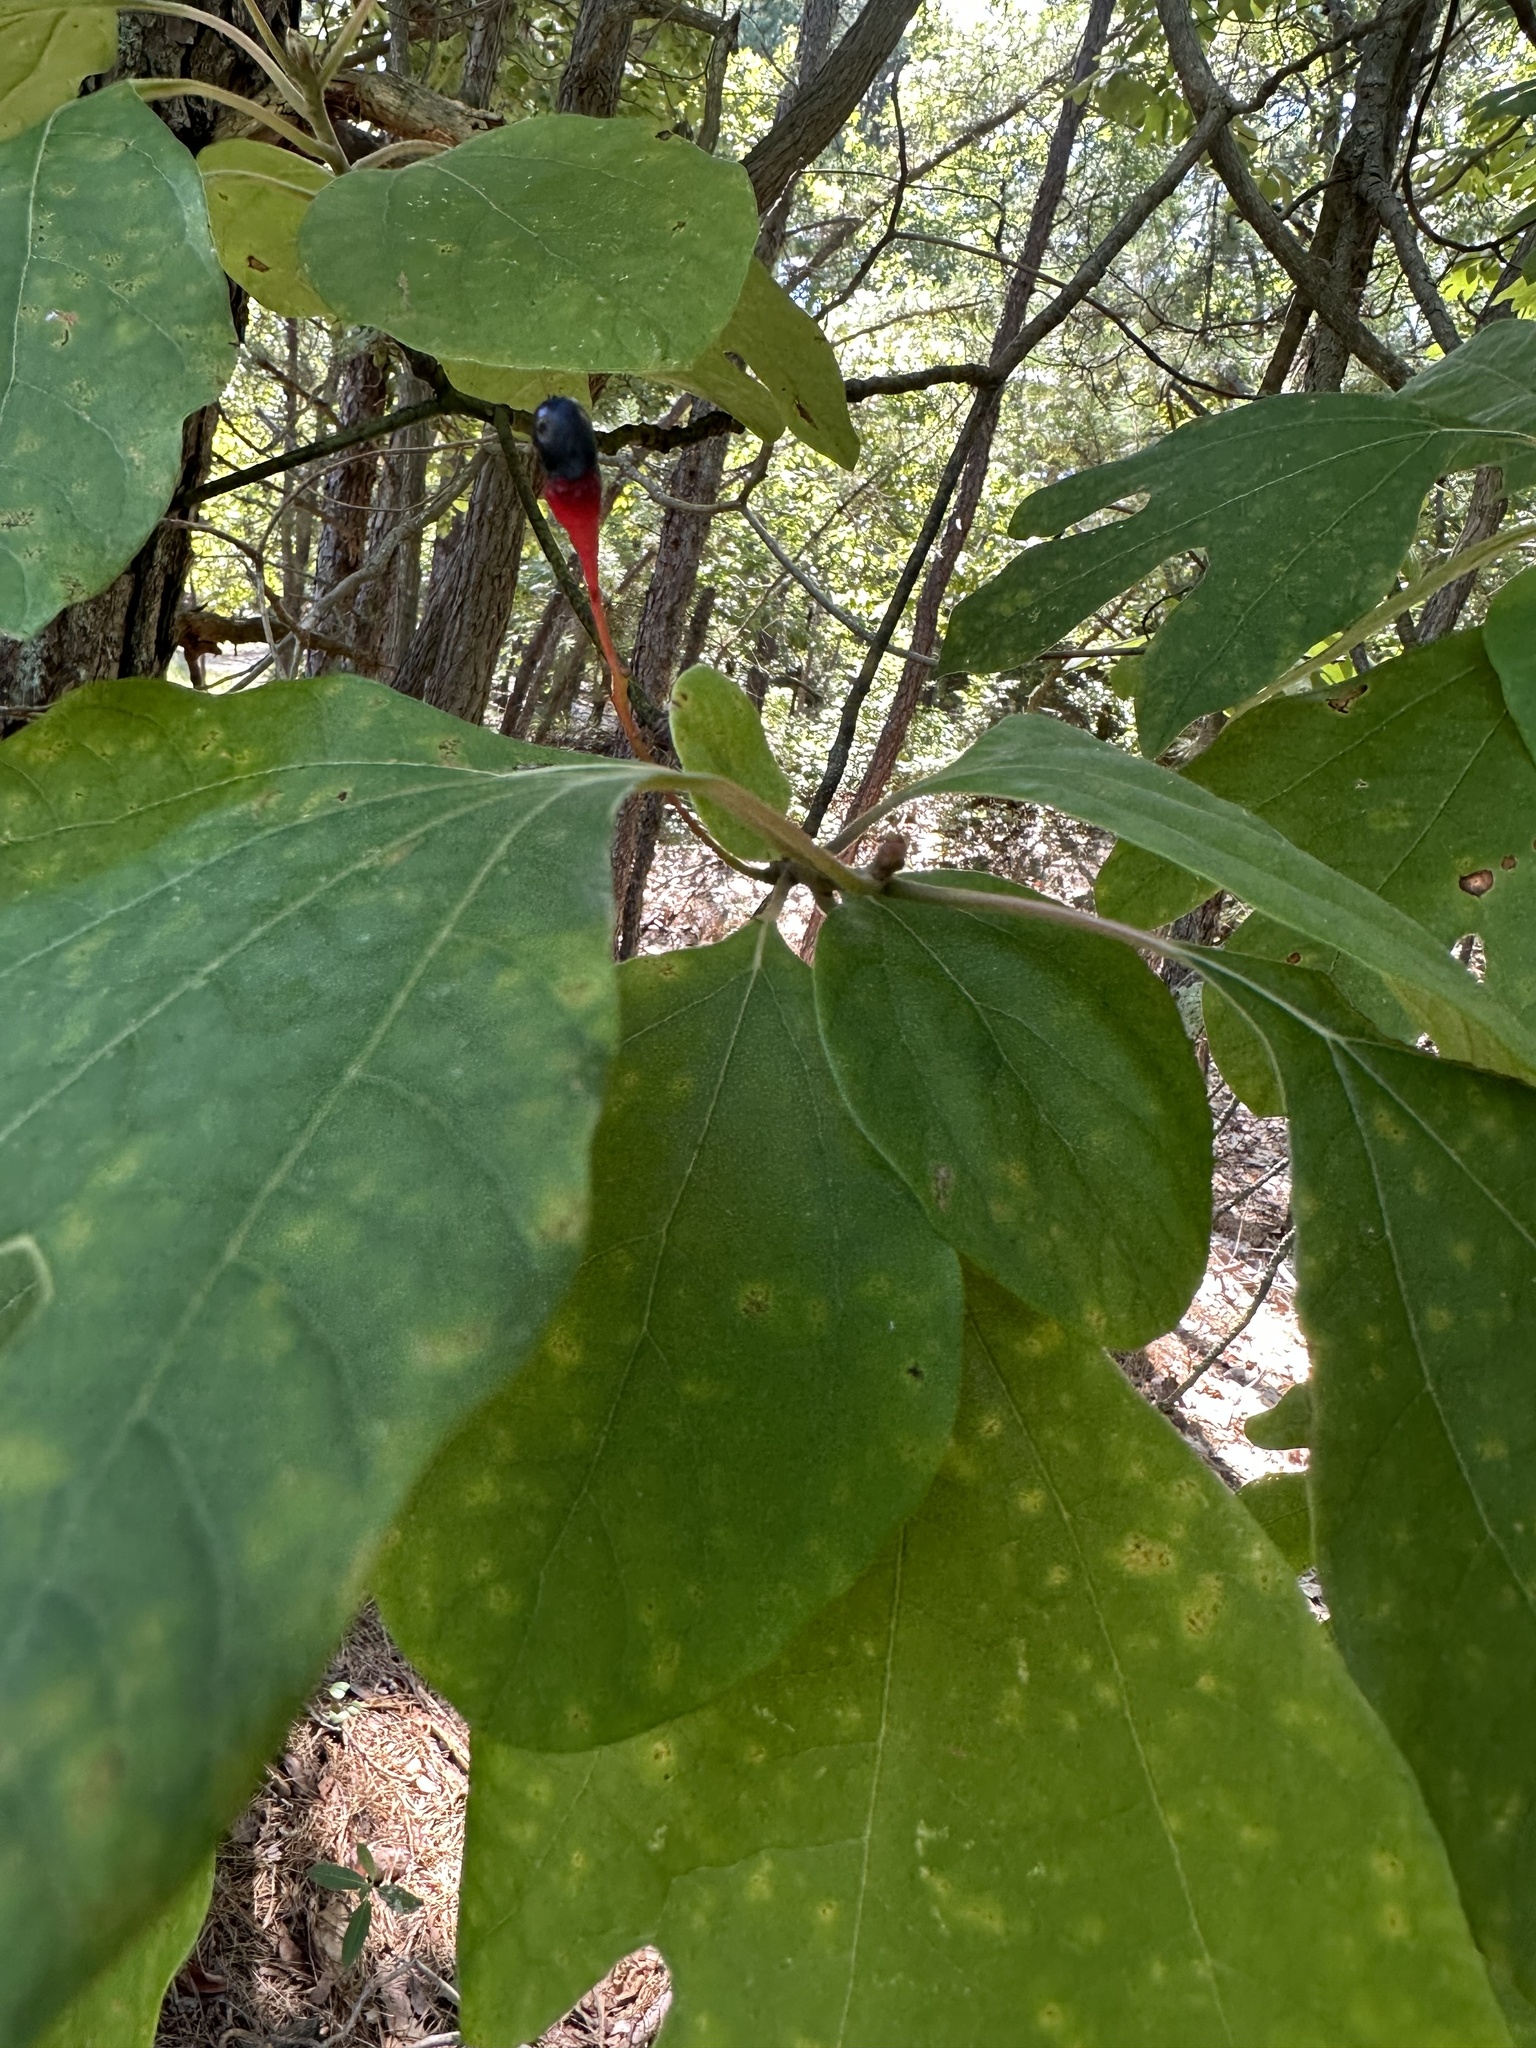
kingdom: Plantae
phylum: Tracheophyta
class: Magnoliopsida
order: Laurales
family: Lauraceae
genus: Sassafras
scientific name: Sassafras albidum
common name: Sassafras
